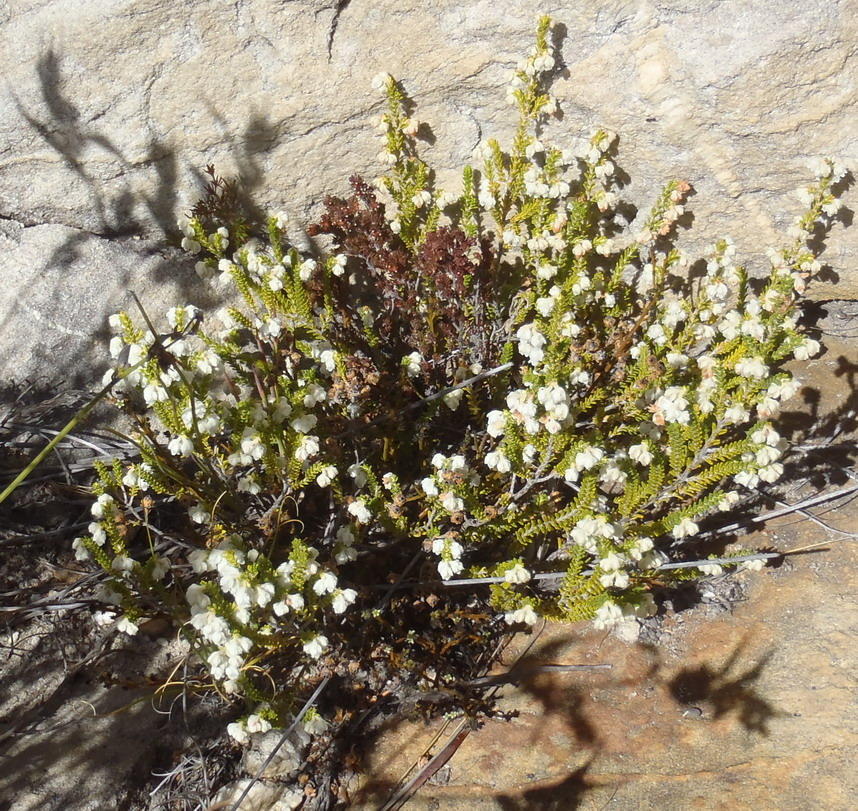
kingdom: Plantae
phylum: Tracheophyta
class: Magnoliopsida
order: Ericales
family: Ericaceae
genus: Erica
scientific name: Erica fimbriata
